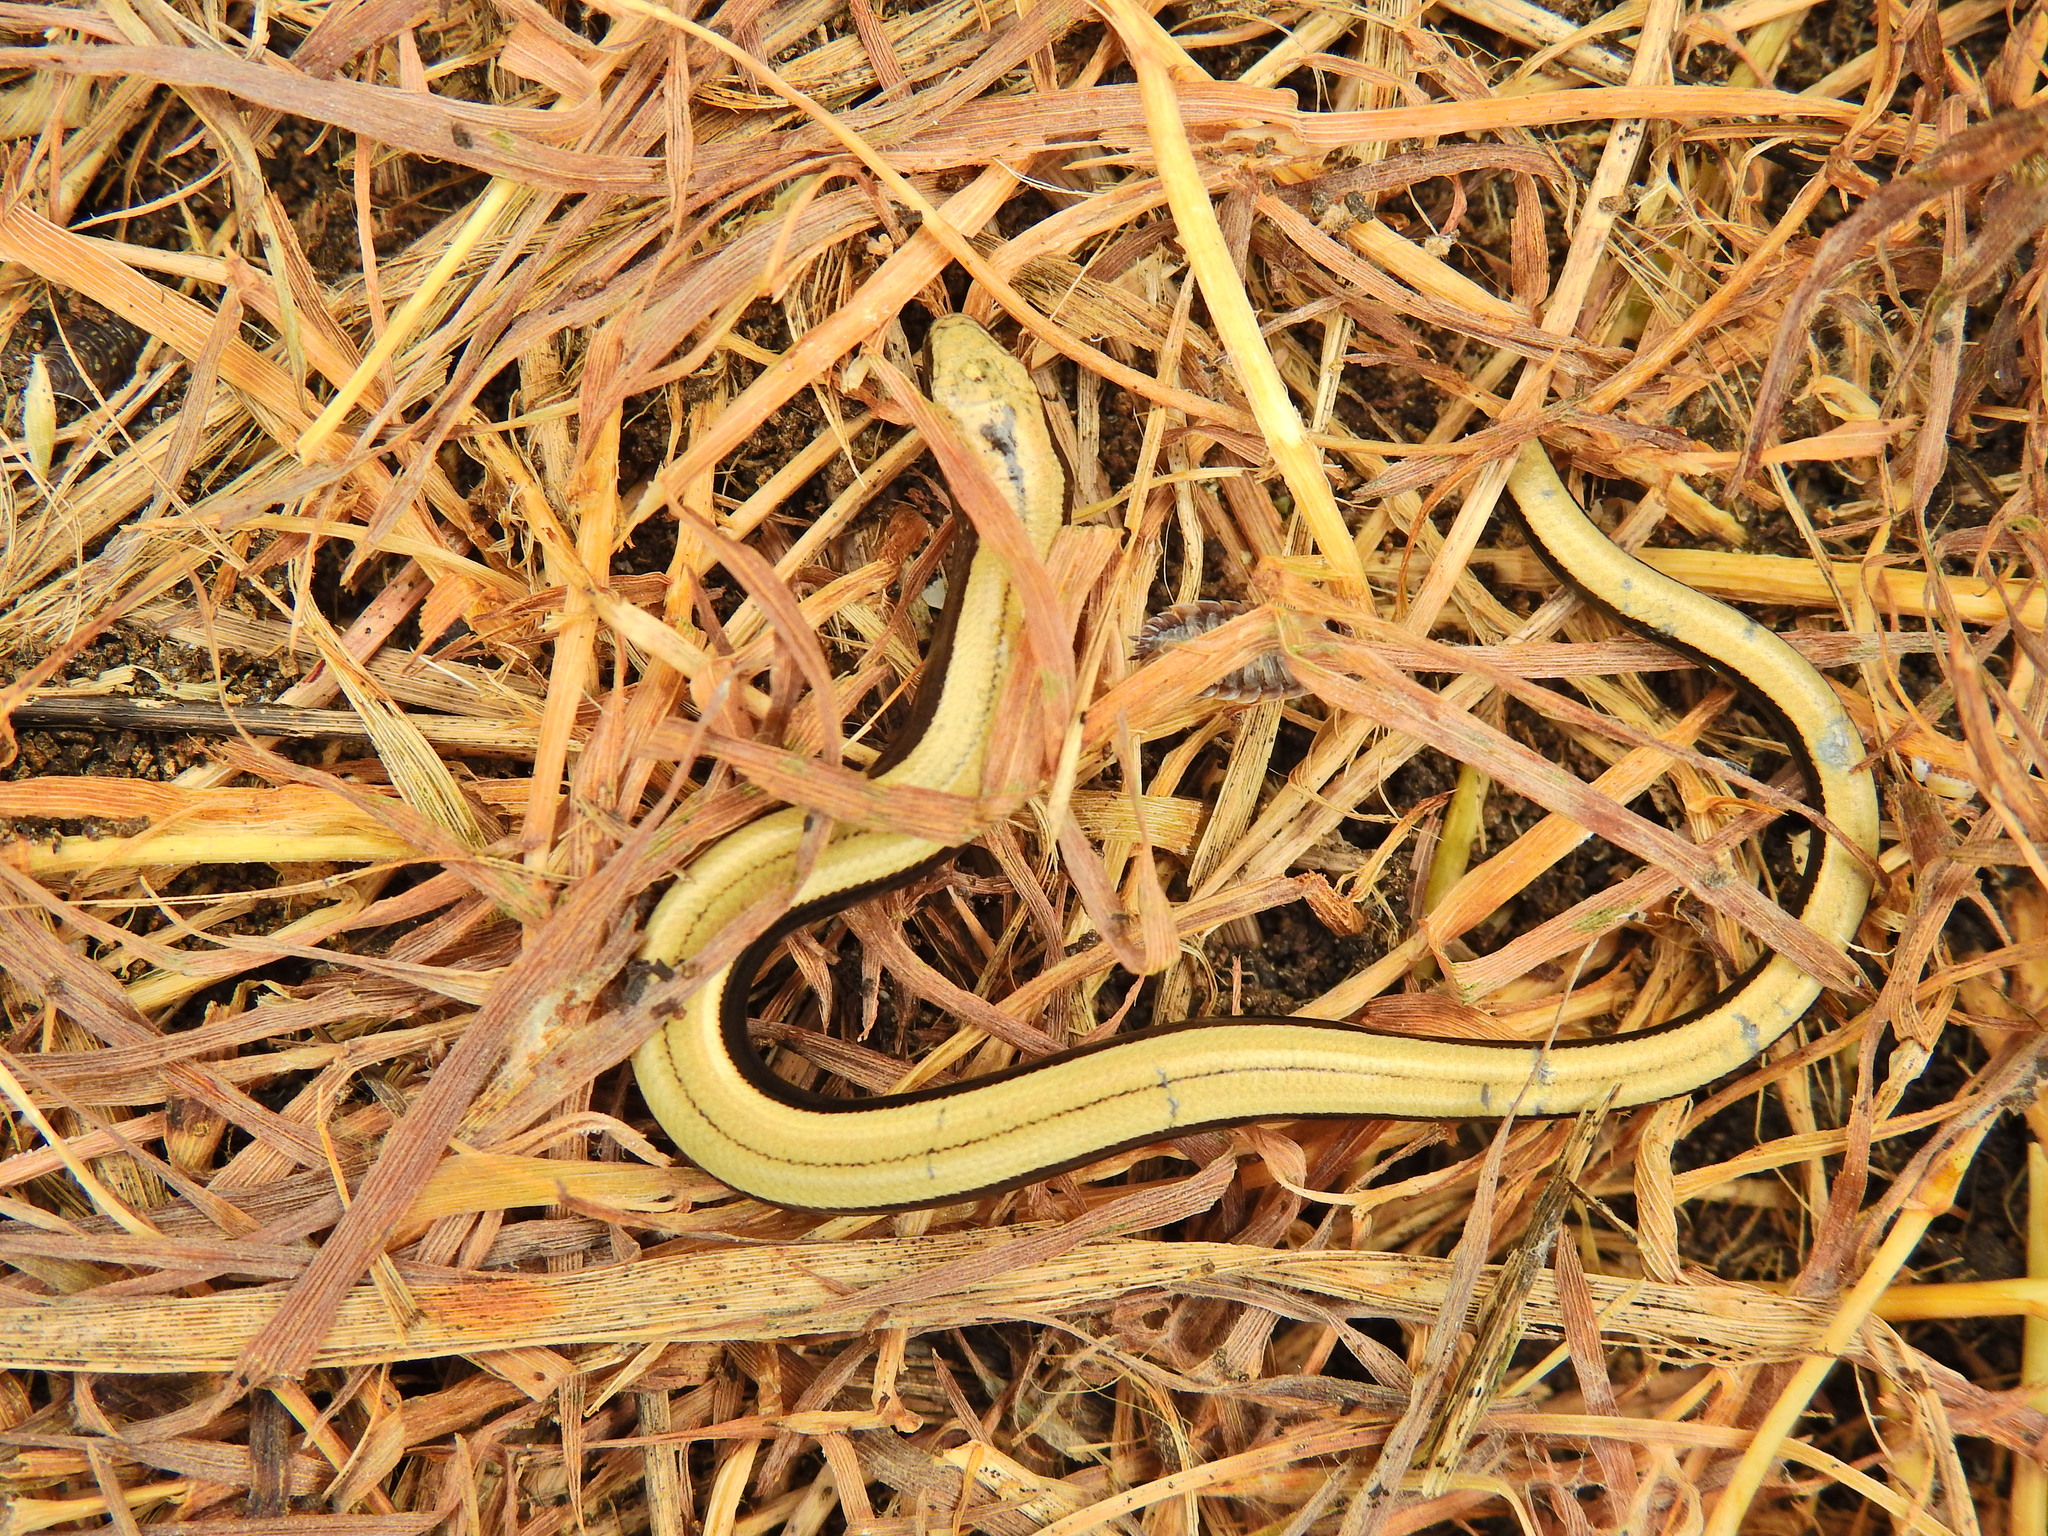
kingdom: Animalia
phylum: Chordata
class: Squamata
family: Anguidae
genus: Anguis
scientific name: Anguis fragilis
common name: Slow worm
